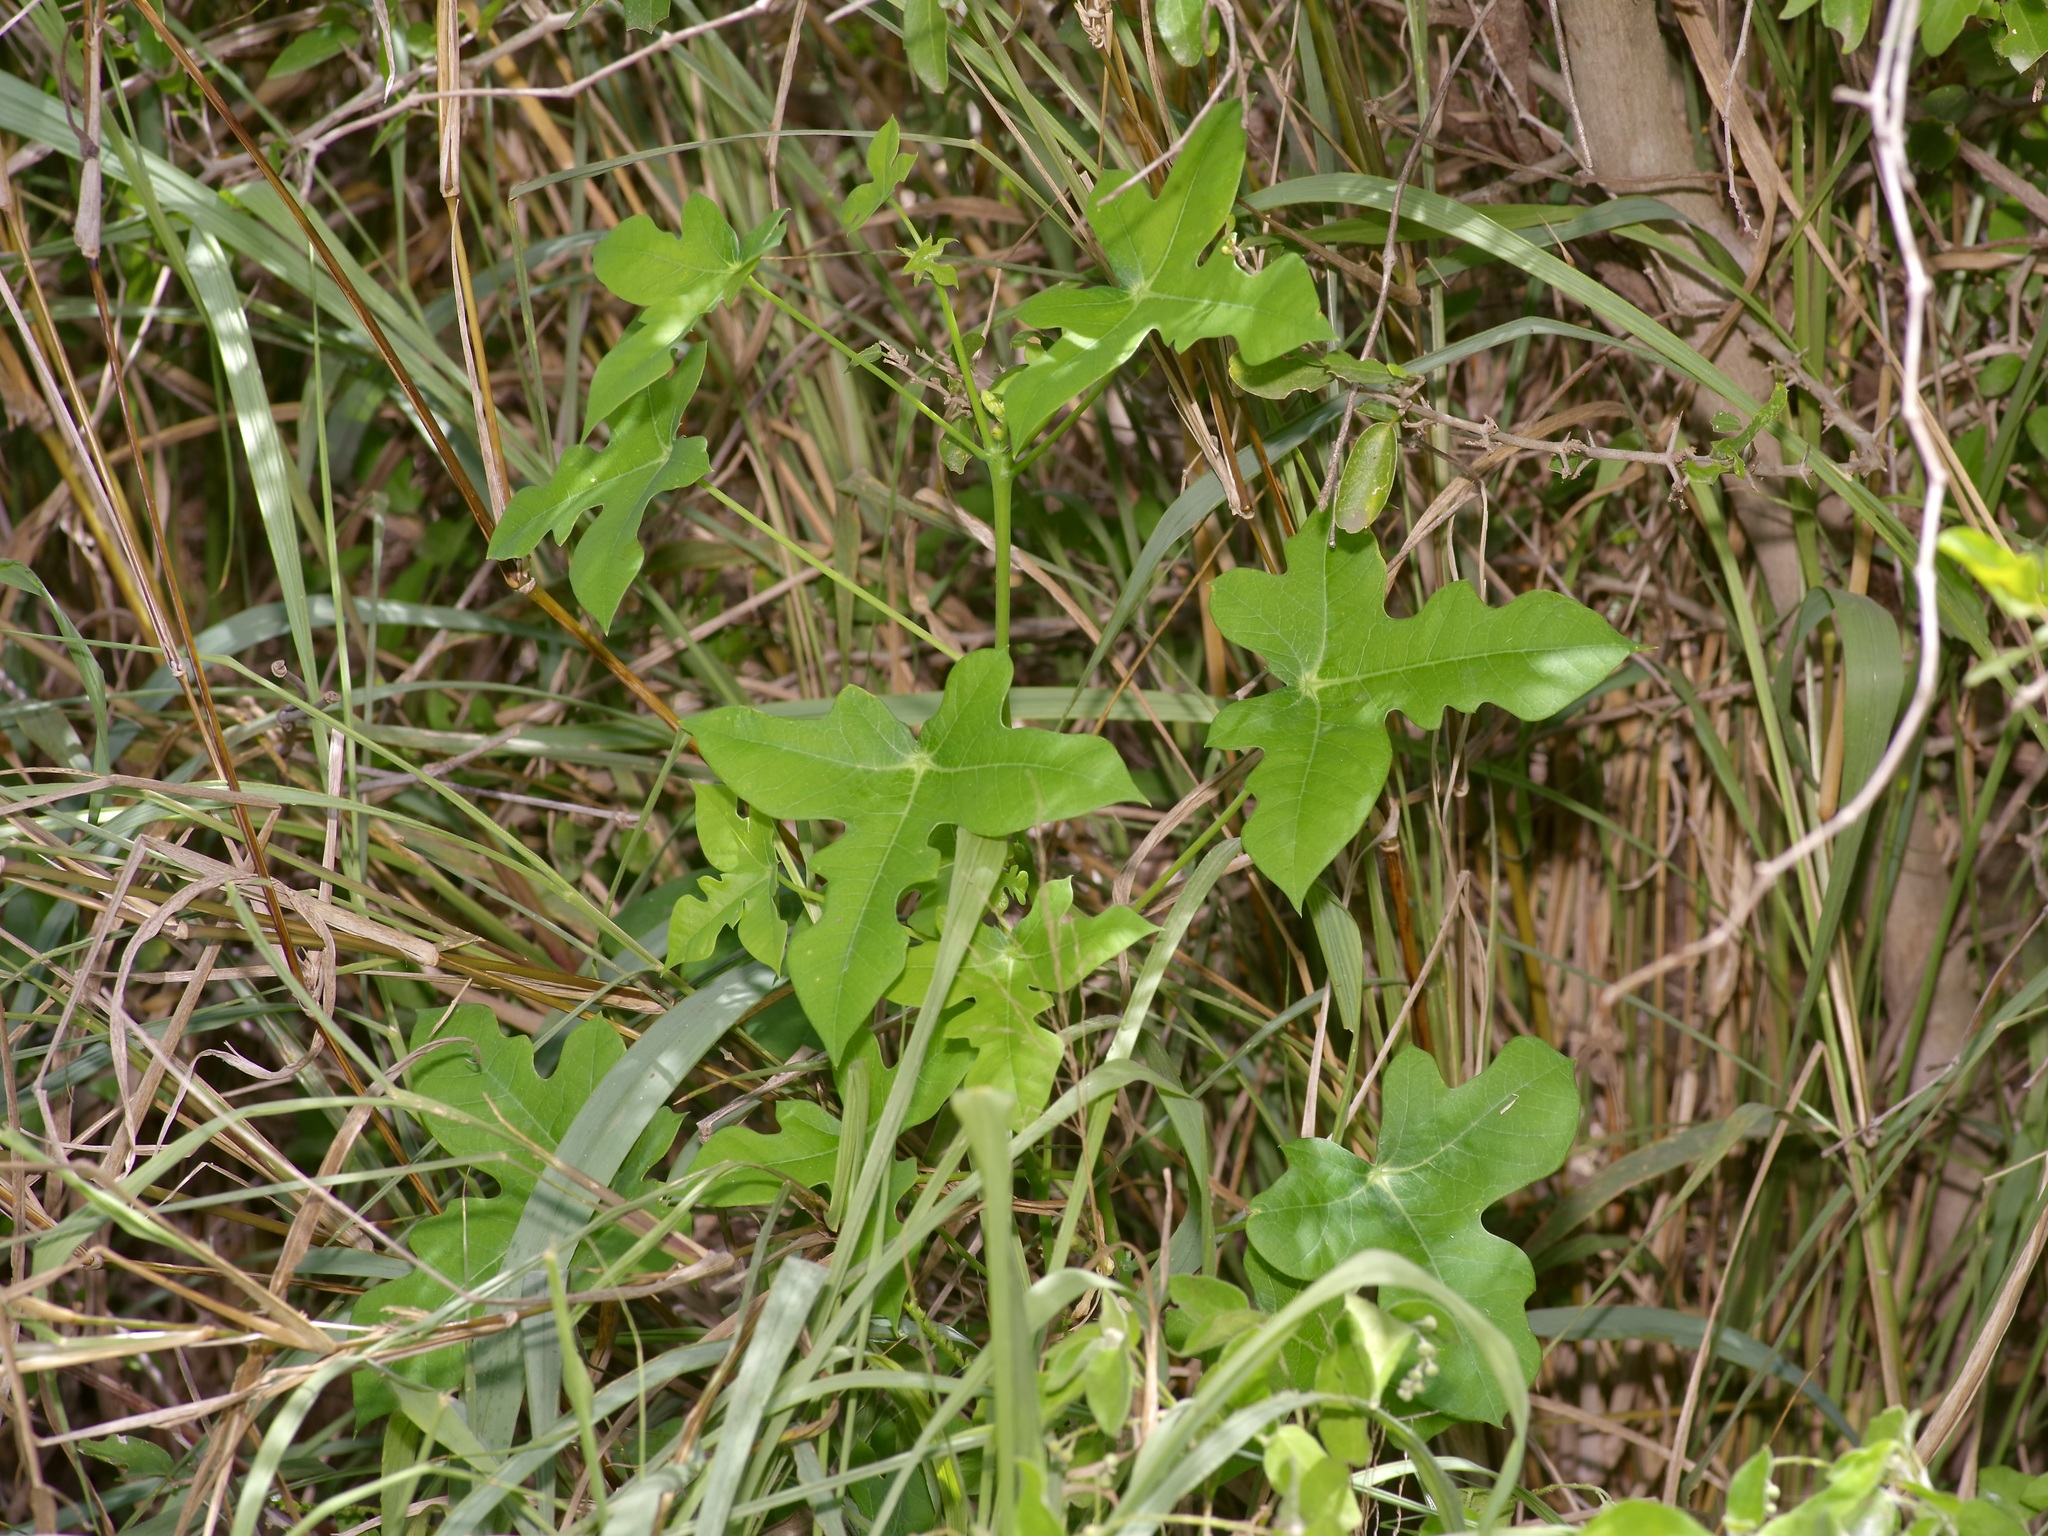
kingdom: Plantae
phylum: Tracheophyta
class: Magnoliopsida
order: Malpighiales
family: Euphorbiaceae
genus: Manihot
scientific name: Manihot walkerae
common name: Walker's manioc
